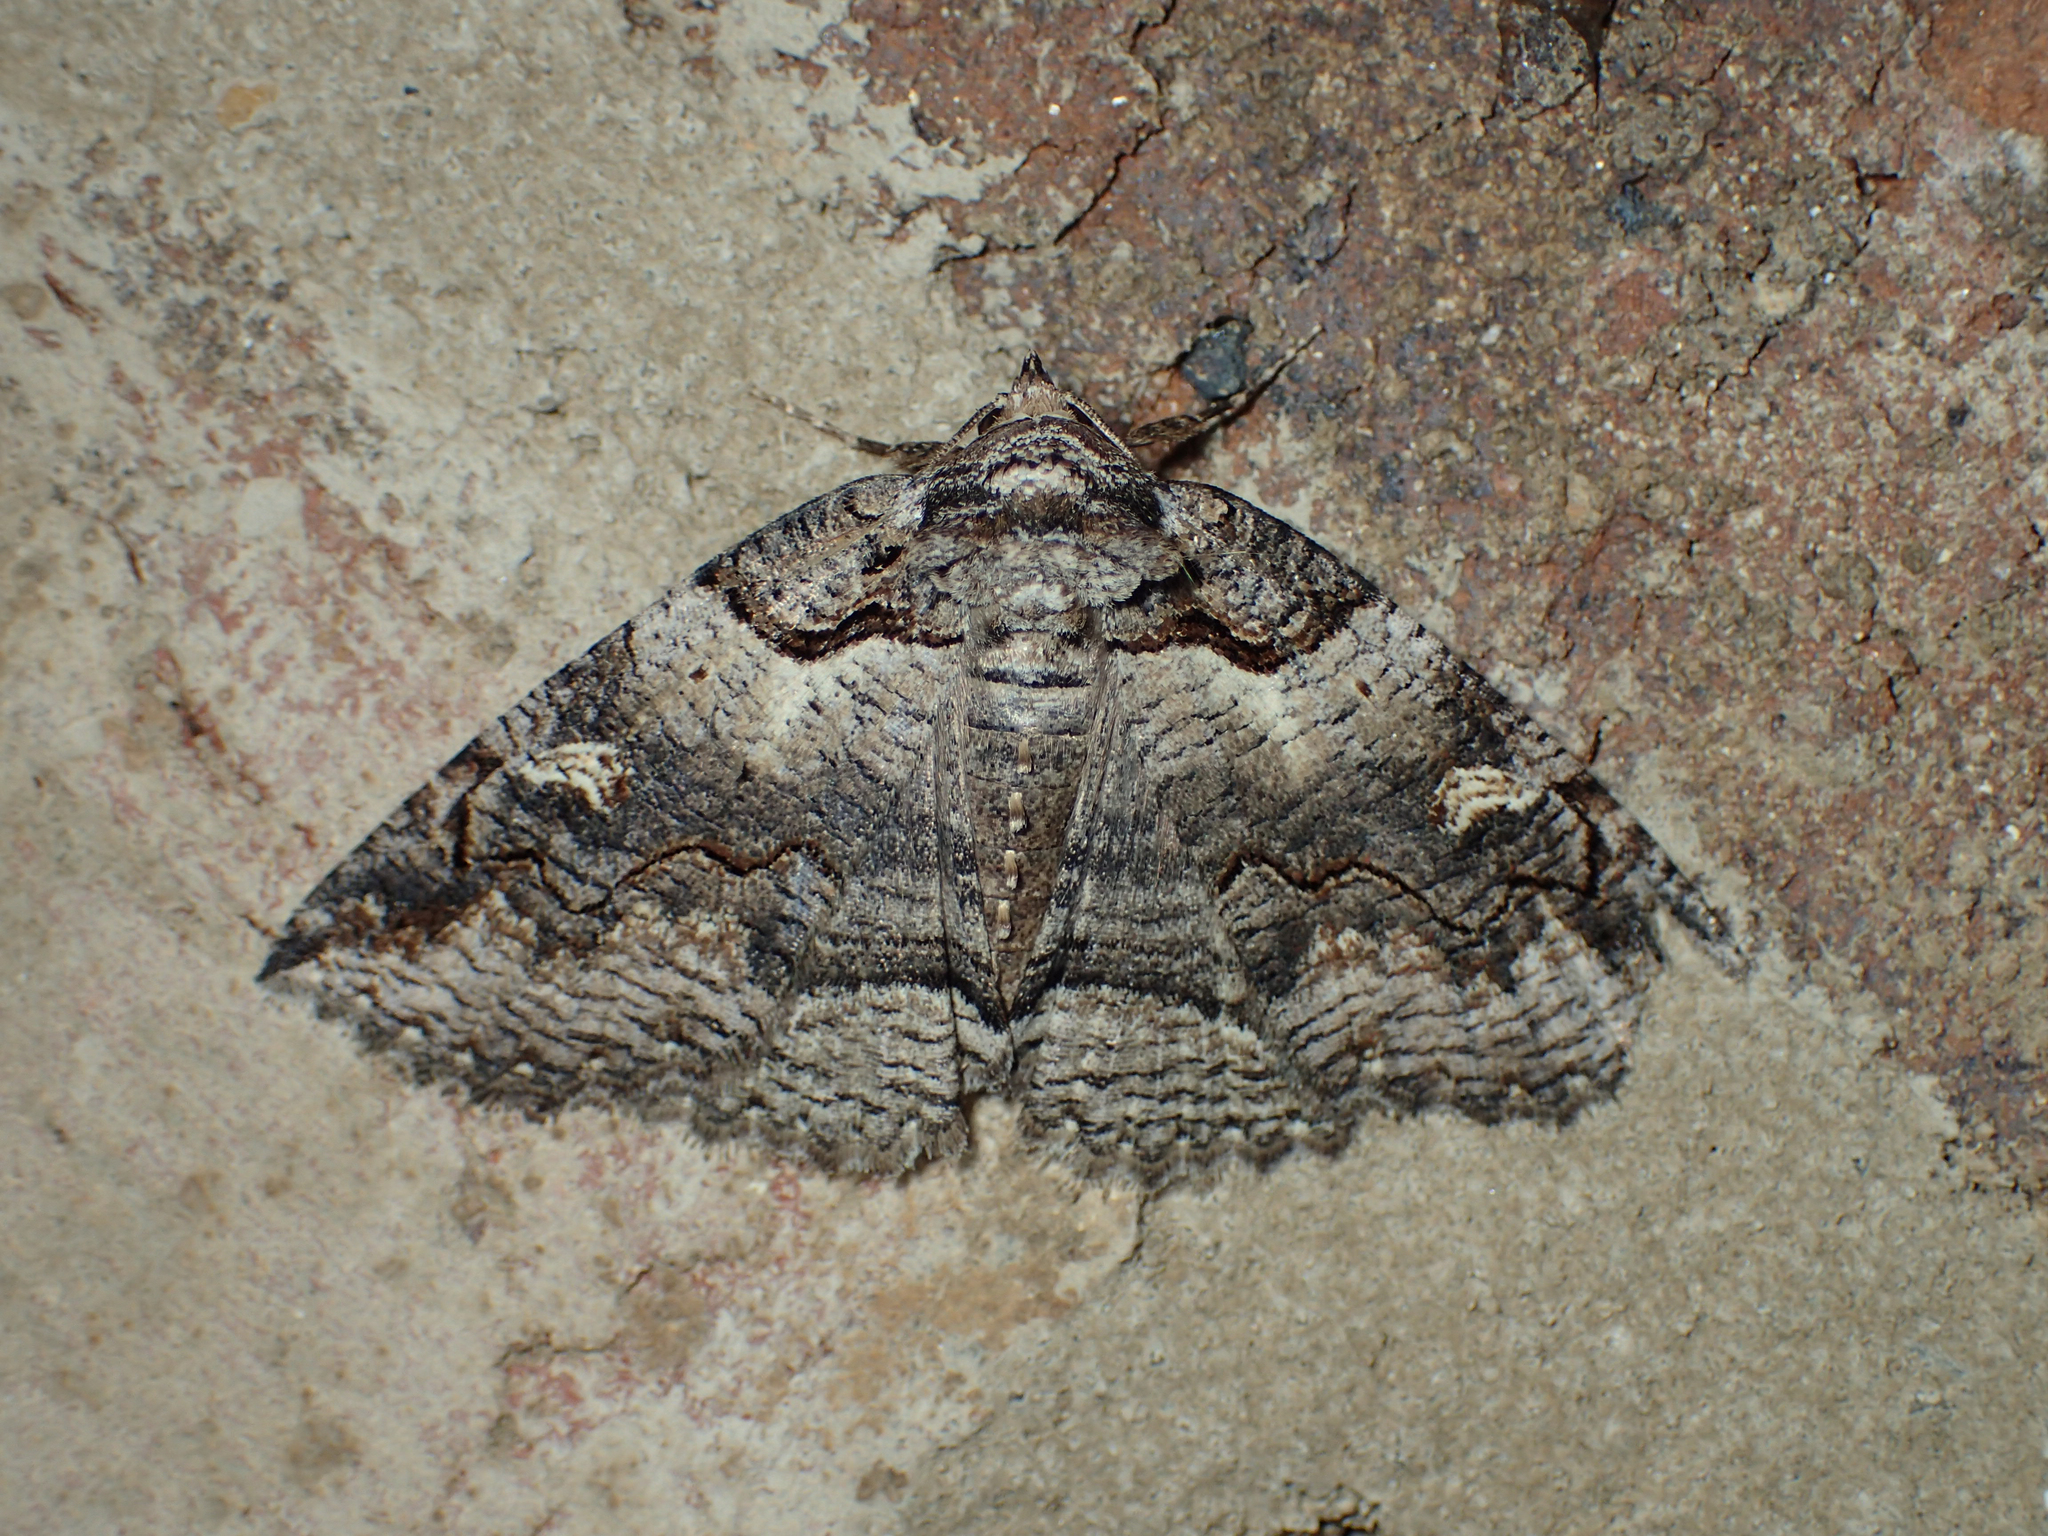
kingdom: Animalia
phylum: Arthropoda
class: Insecta
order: Lepidoptera
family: Erebidae
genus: Zale
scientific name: Zale intenta
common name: Intent zale moth
